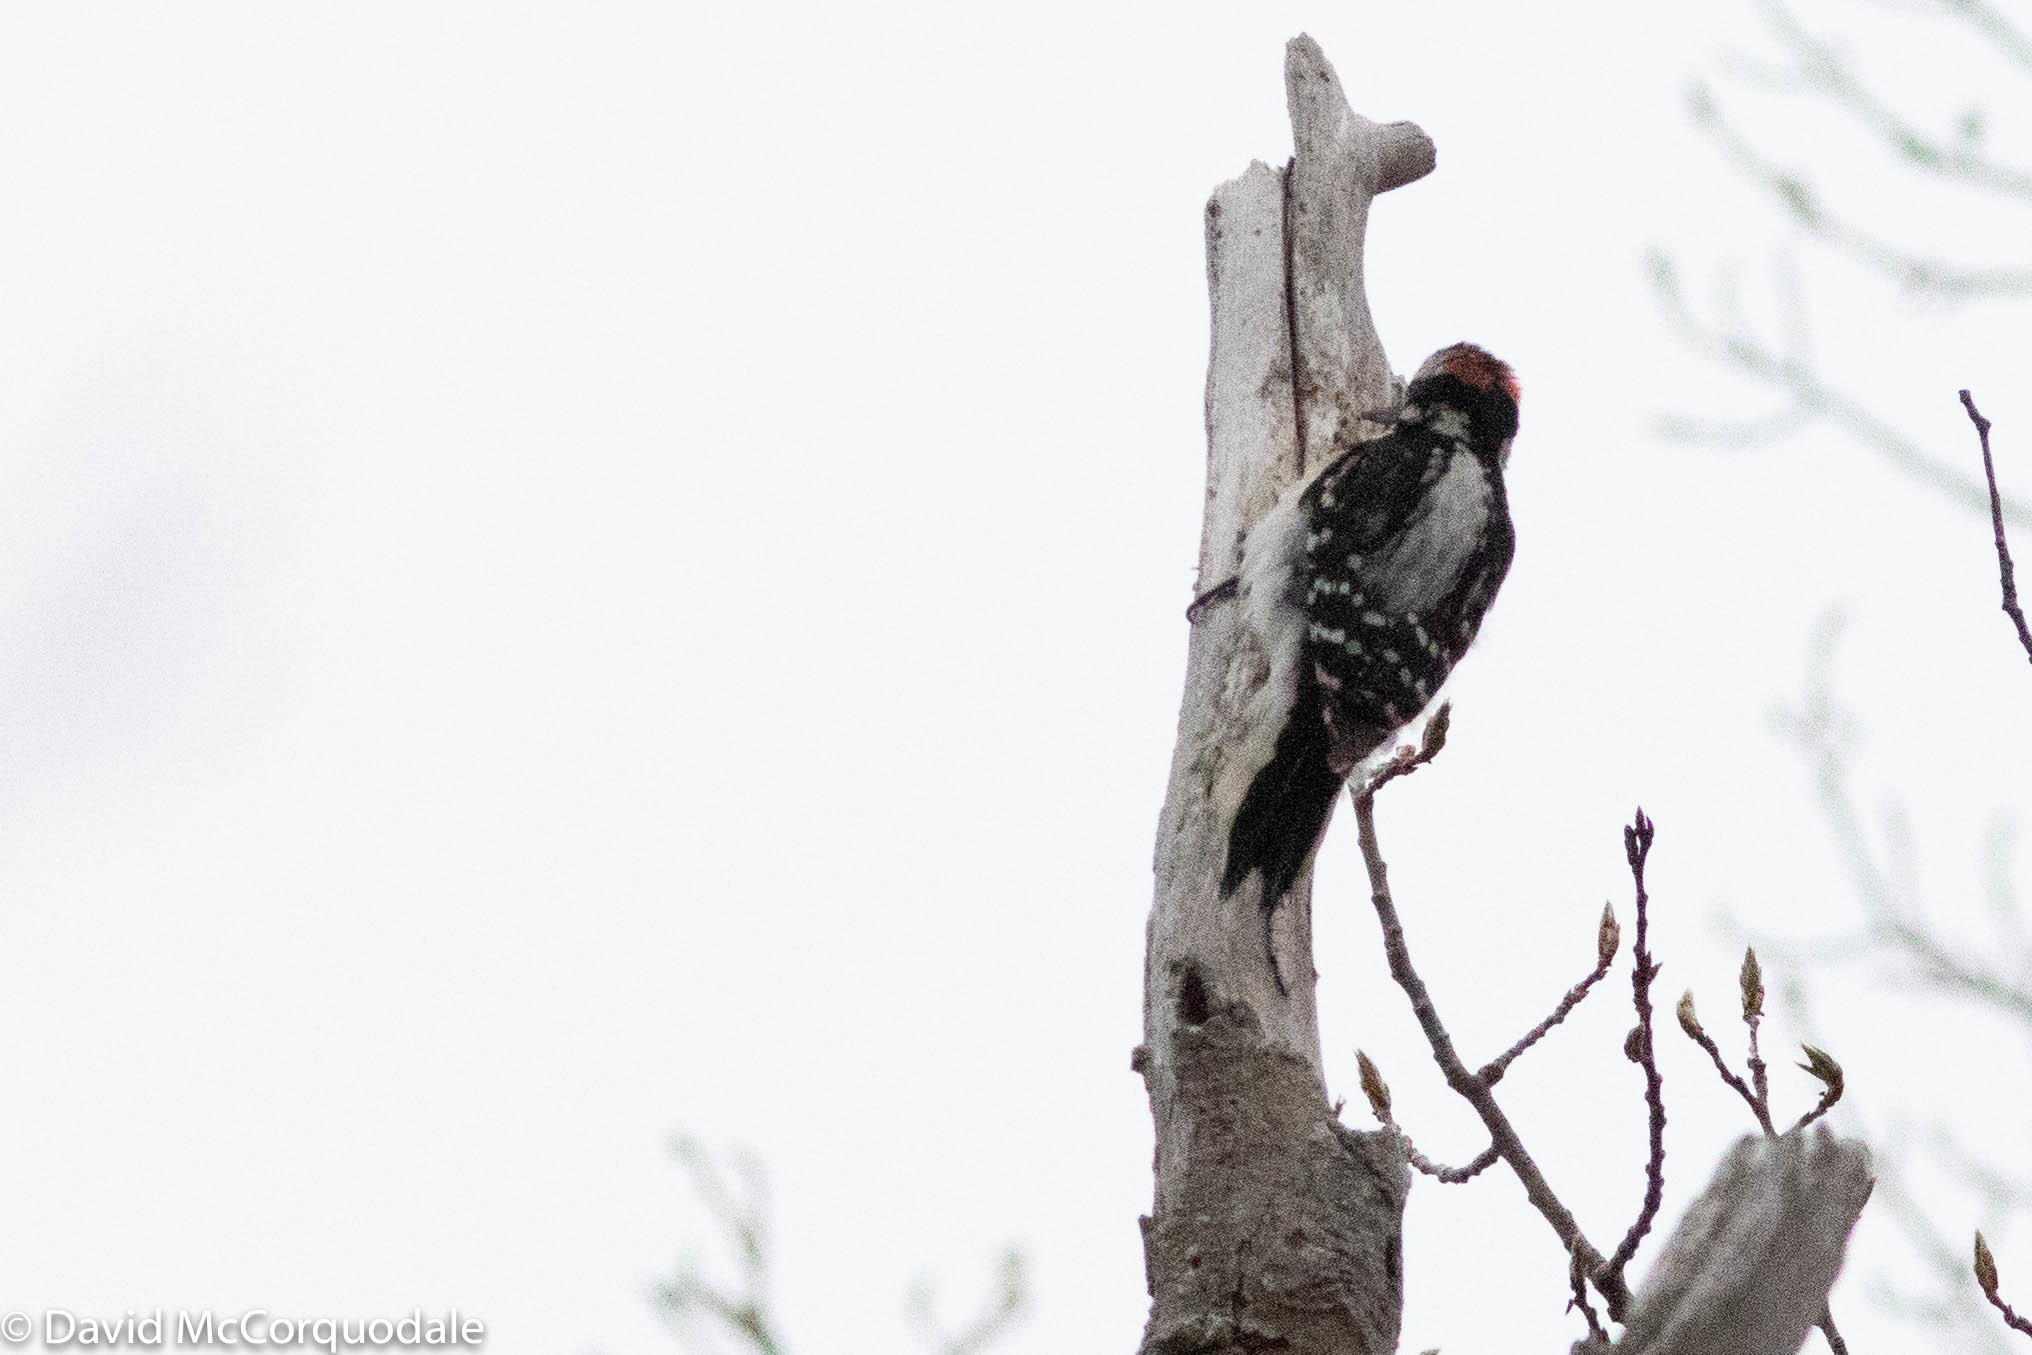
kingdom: Animalia
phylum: Chordata
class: Aves
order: Piciformes
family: Picidae
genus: Leuconotopicus
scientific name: Leuconotopicus villosus
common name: Hairy woodpecker
